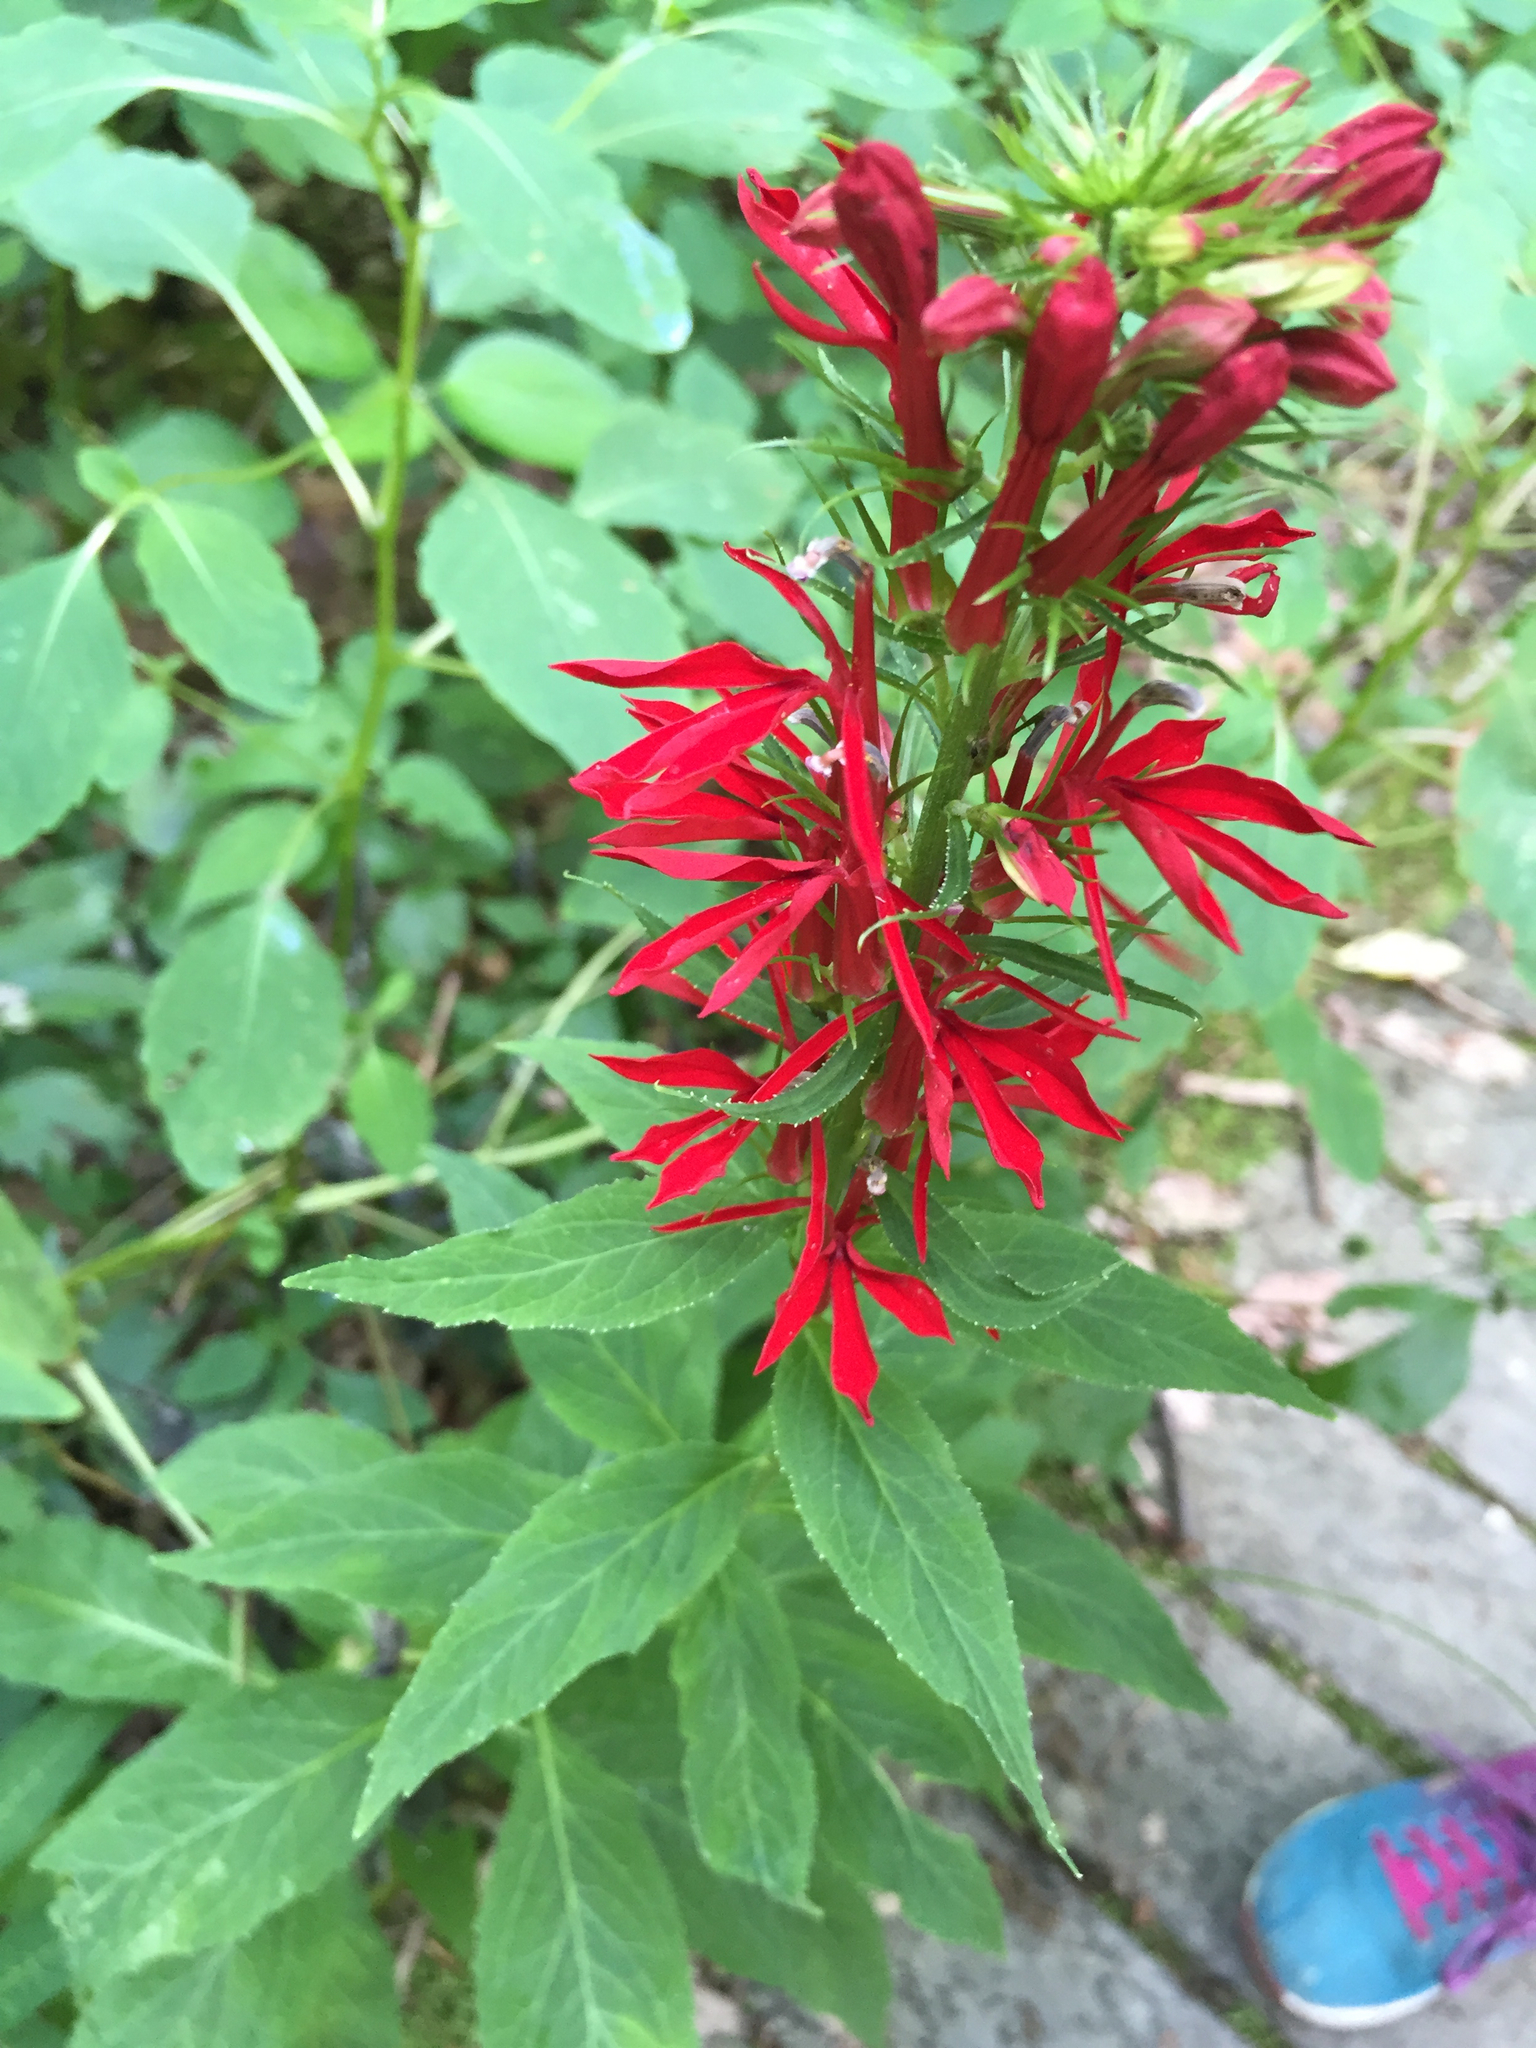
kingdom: Plantae
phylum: Tracheophyta
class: Magnoliopsida
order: Asterales
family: Campanulaceae
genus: Lobelia
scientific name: Lobelia cardinalis
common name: Cardinal flower
